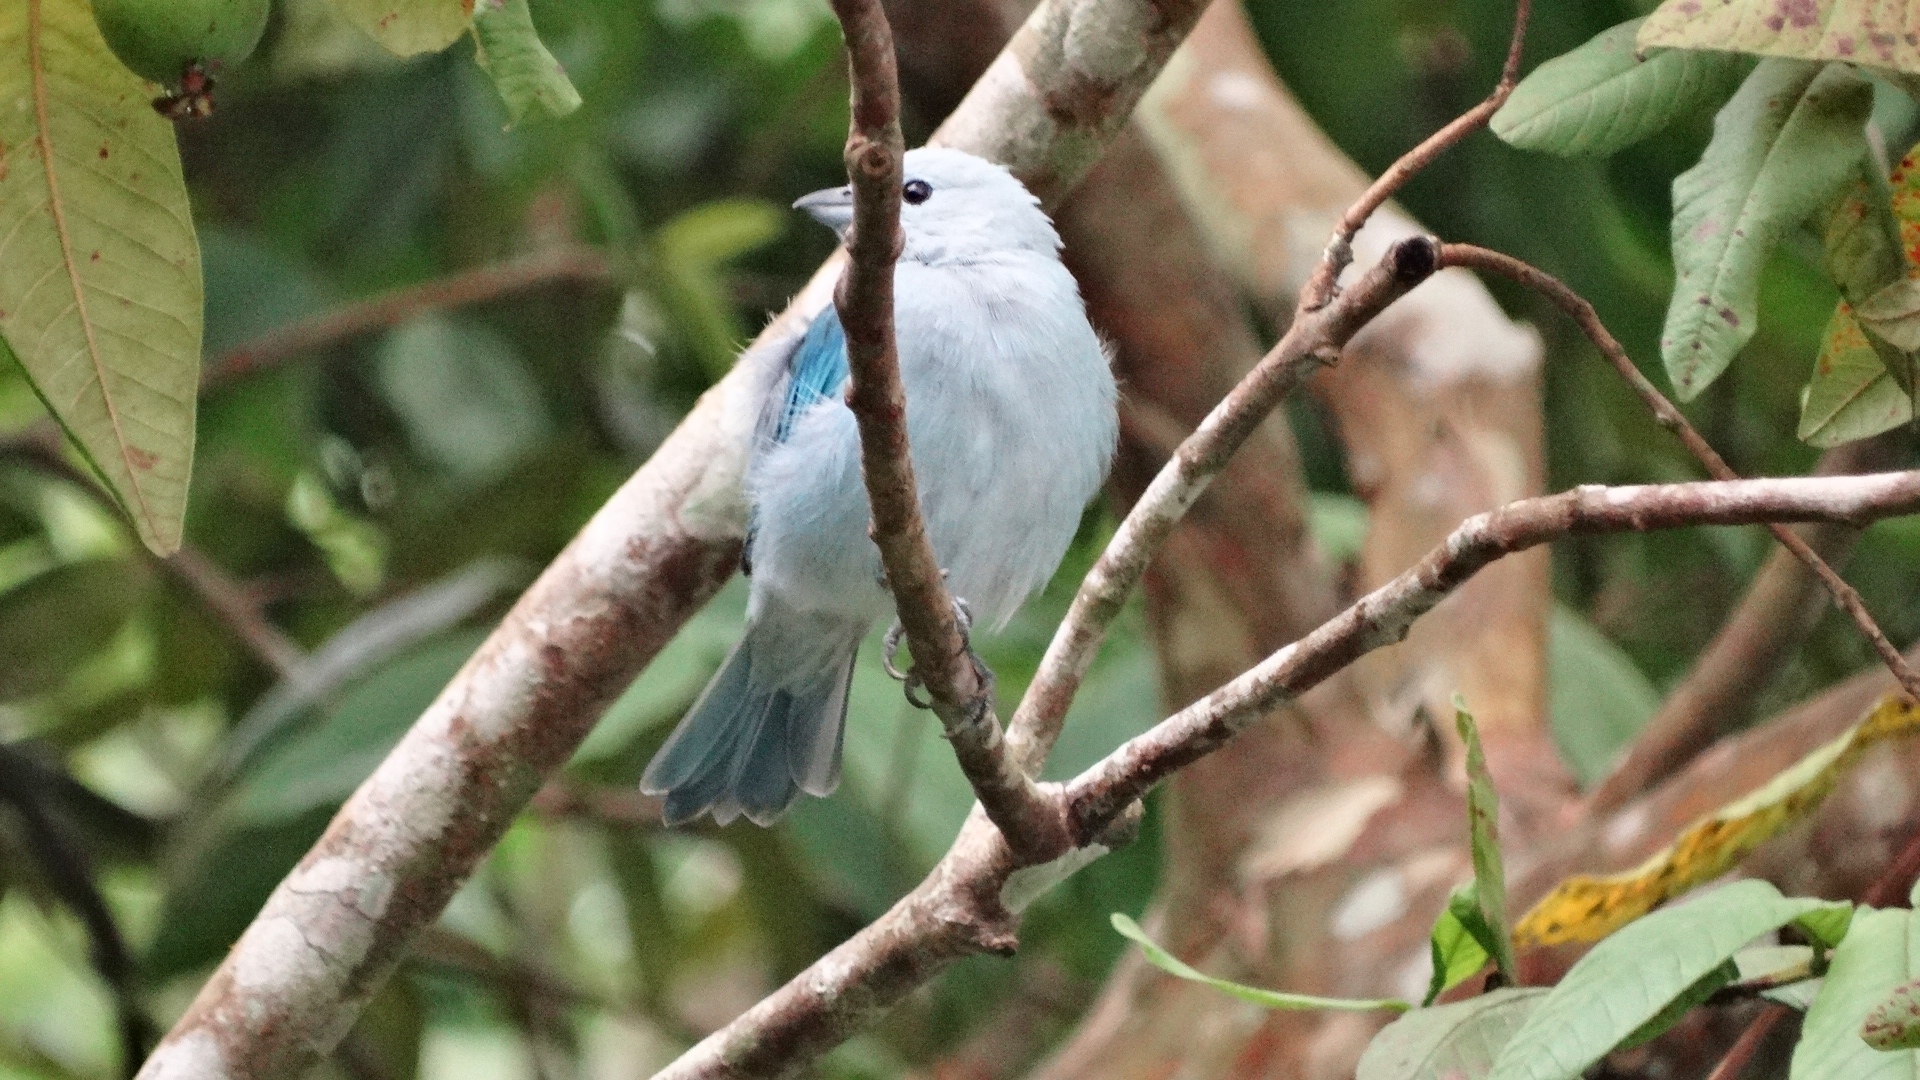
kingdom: Animalia
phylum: Chordata
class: Aves
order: Passeriformes
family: Thraupidae
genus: Thraupis
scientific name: Thraupis episcopus
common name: Blue-grey tanager
